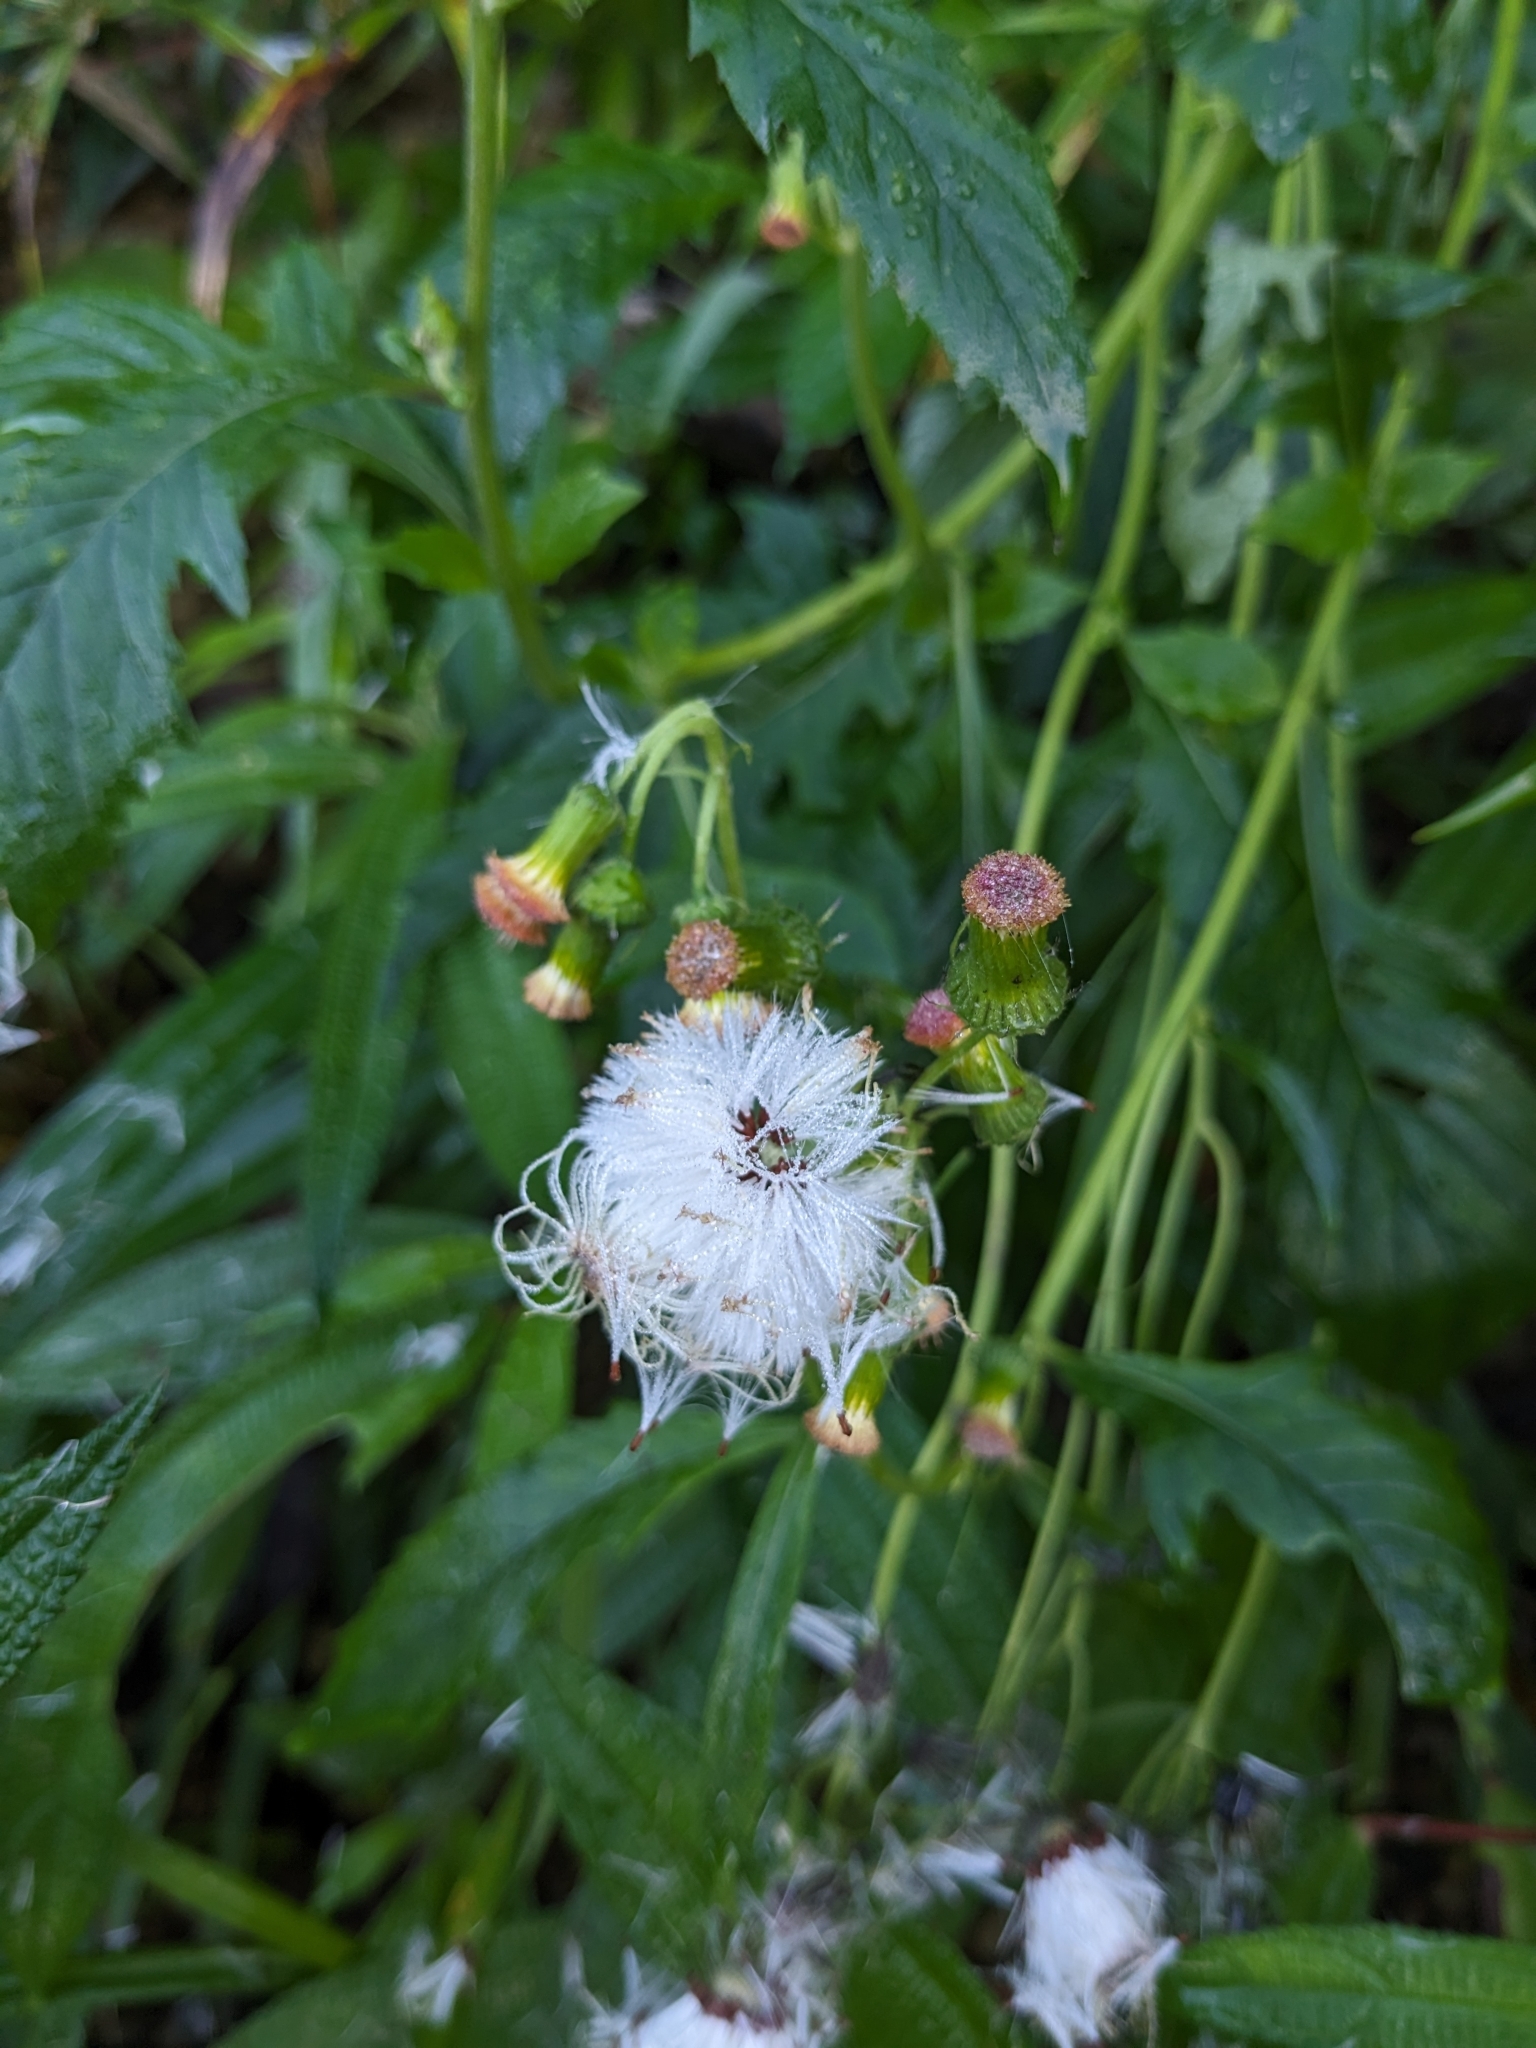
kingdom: Plantae
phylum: Tracheophyta
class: Magnoliopsida
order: Asterales
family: Asteraceae
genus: Crassocephalum
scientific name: Crassocephalum crepidioides
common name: Redflower ragleaf
